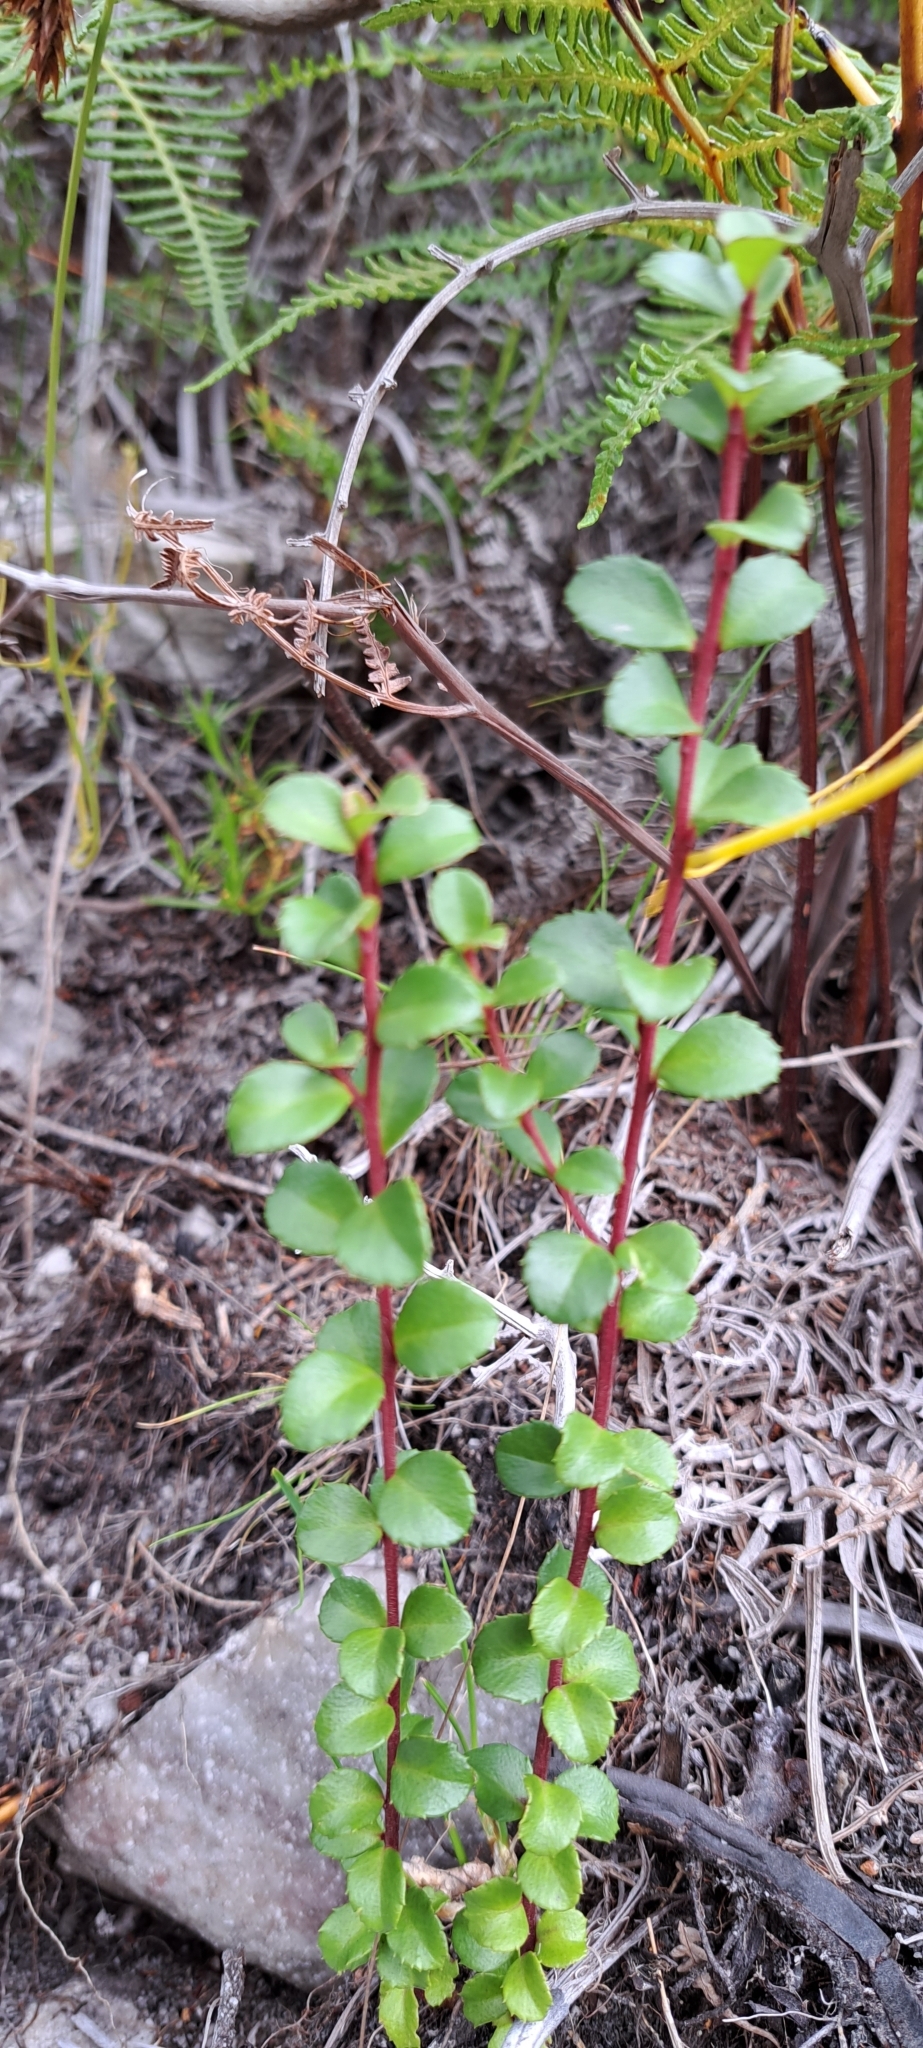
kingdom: Plantae
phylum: Tracheophyta
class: Magnoliopsida
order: Ericales
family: Primulaceae
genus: Myrsine
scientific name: Myrsine africana
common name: African-boxwood
